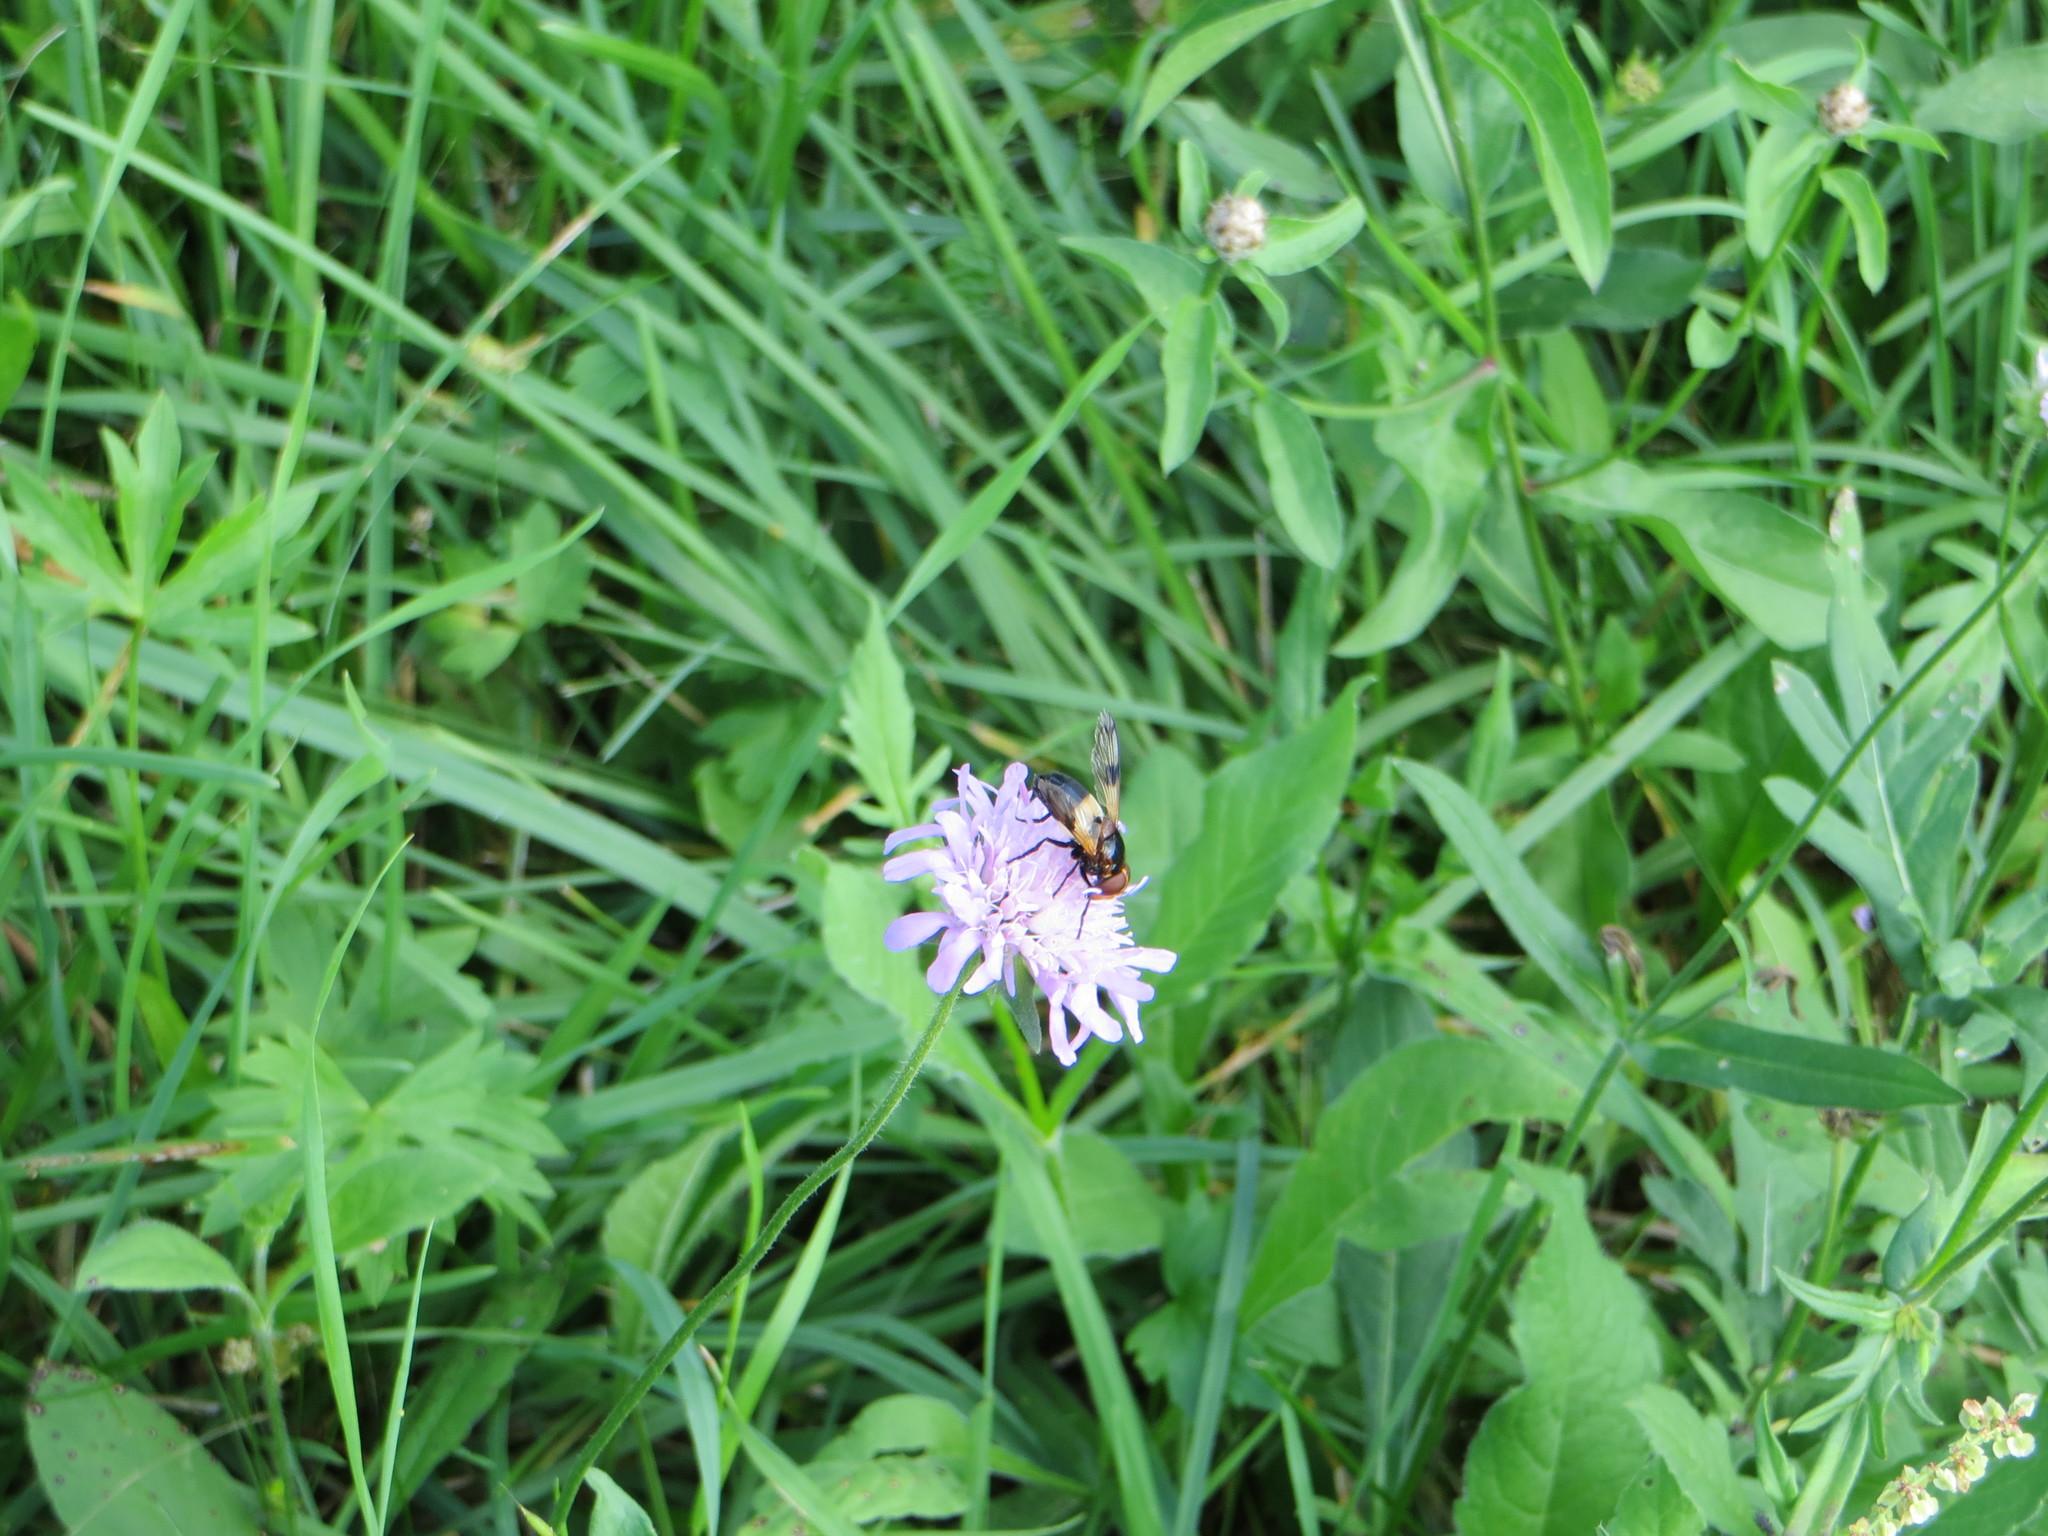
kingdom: Animalia
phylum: Arthropoda
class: Insecta
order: Diptera
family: Syrphidae
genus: Volucella
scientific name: Volucella pellucens
